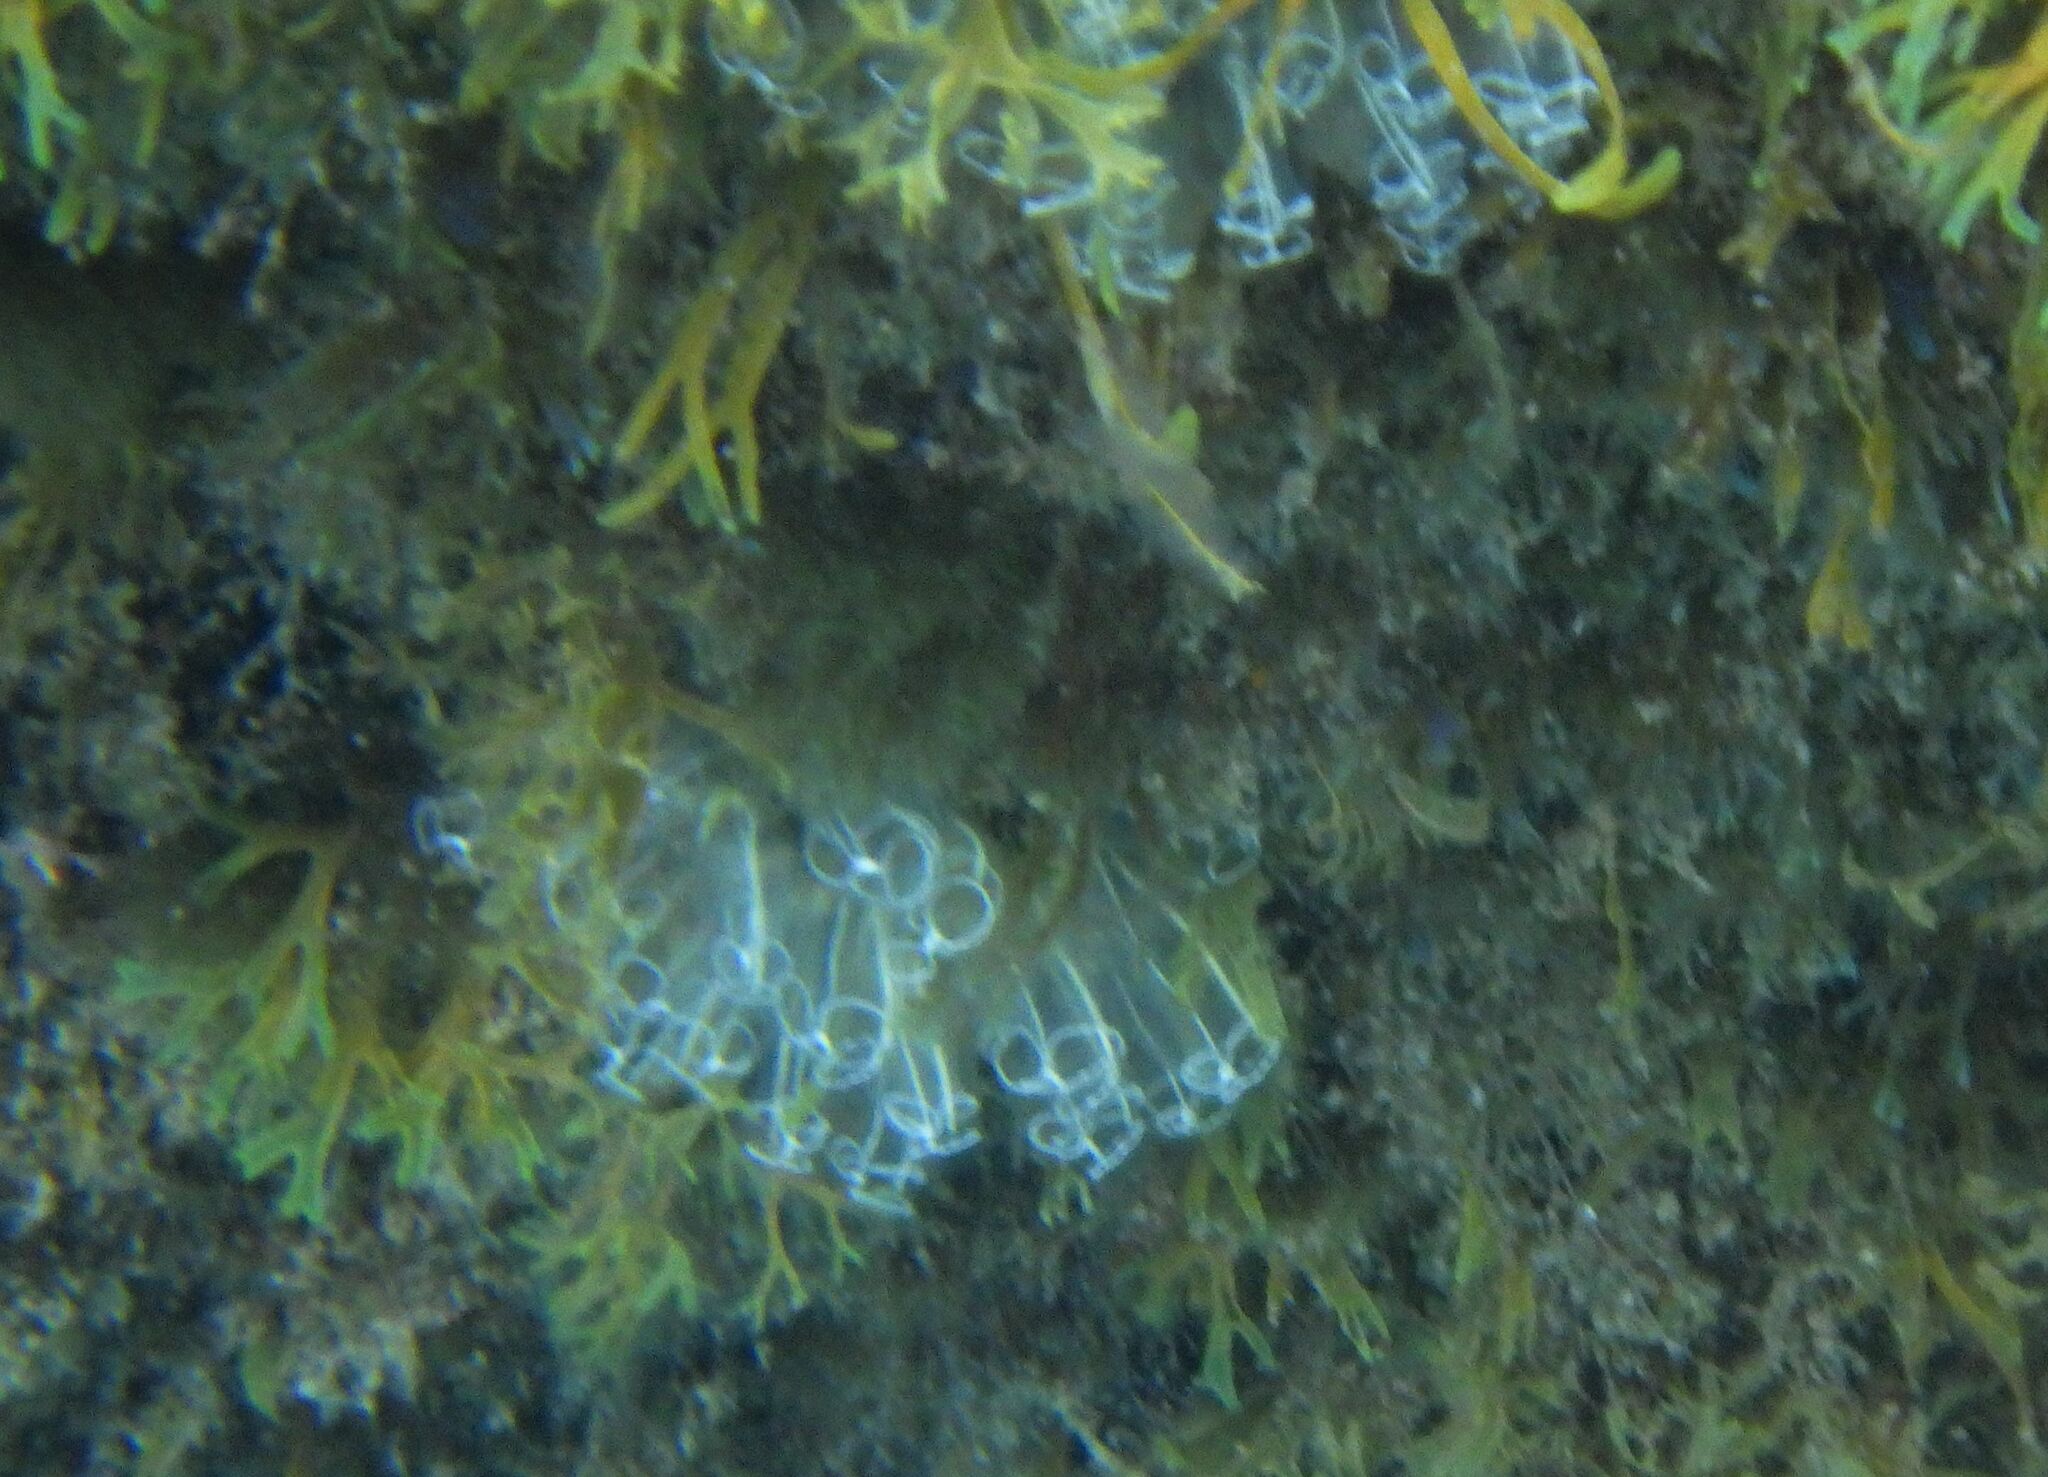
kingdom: Animalia
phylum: Chordata
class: Ascidiacea
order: Aplousobranchia
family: Clavelinidae
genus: Clavelina
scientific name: Clavelina lepadiformis
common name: Light bulb tunicate
